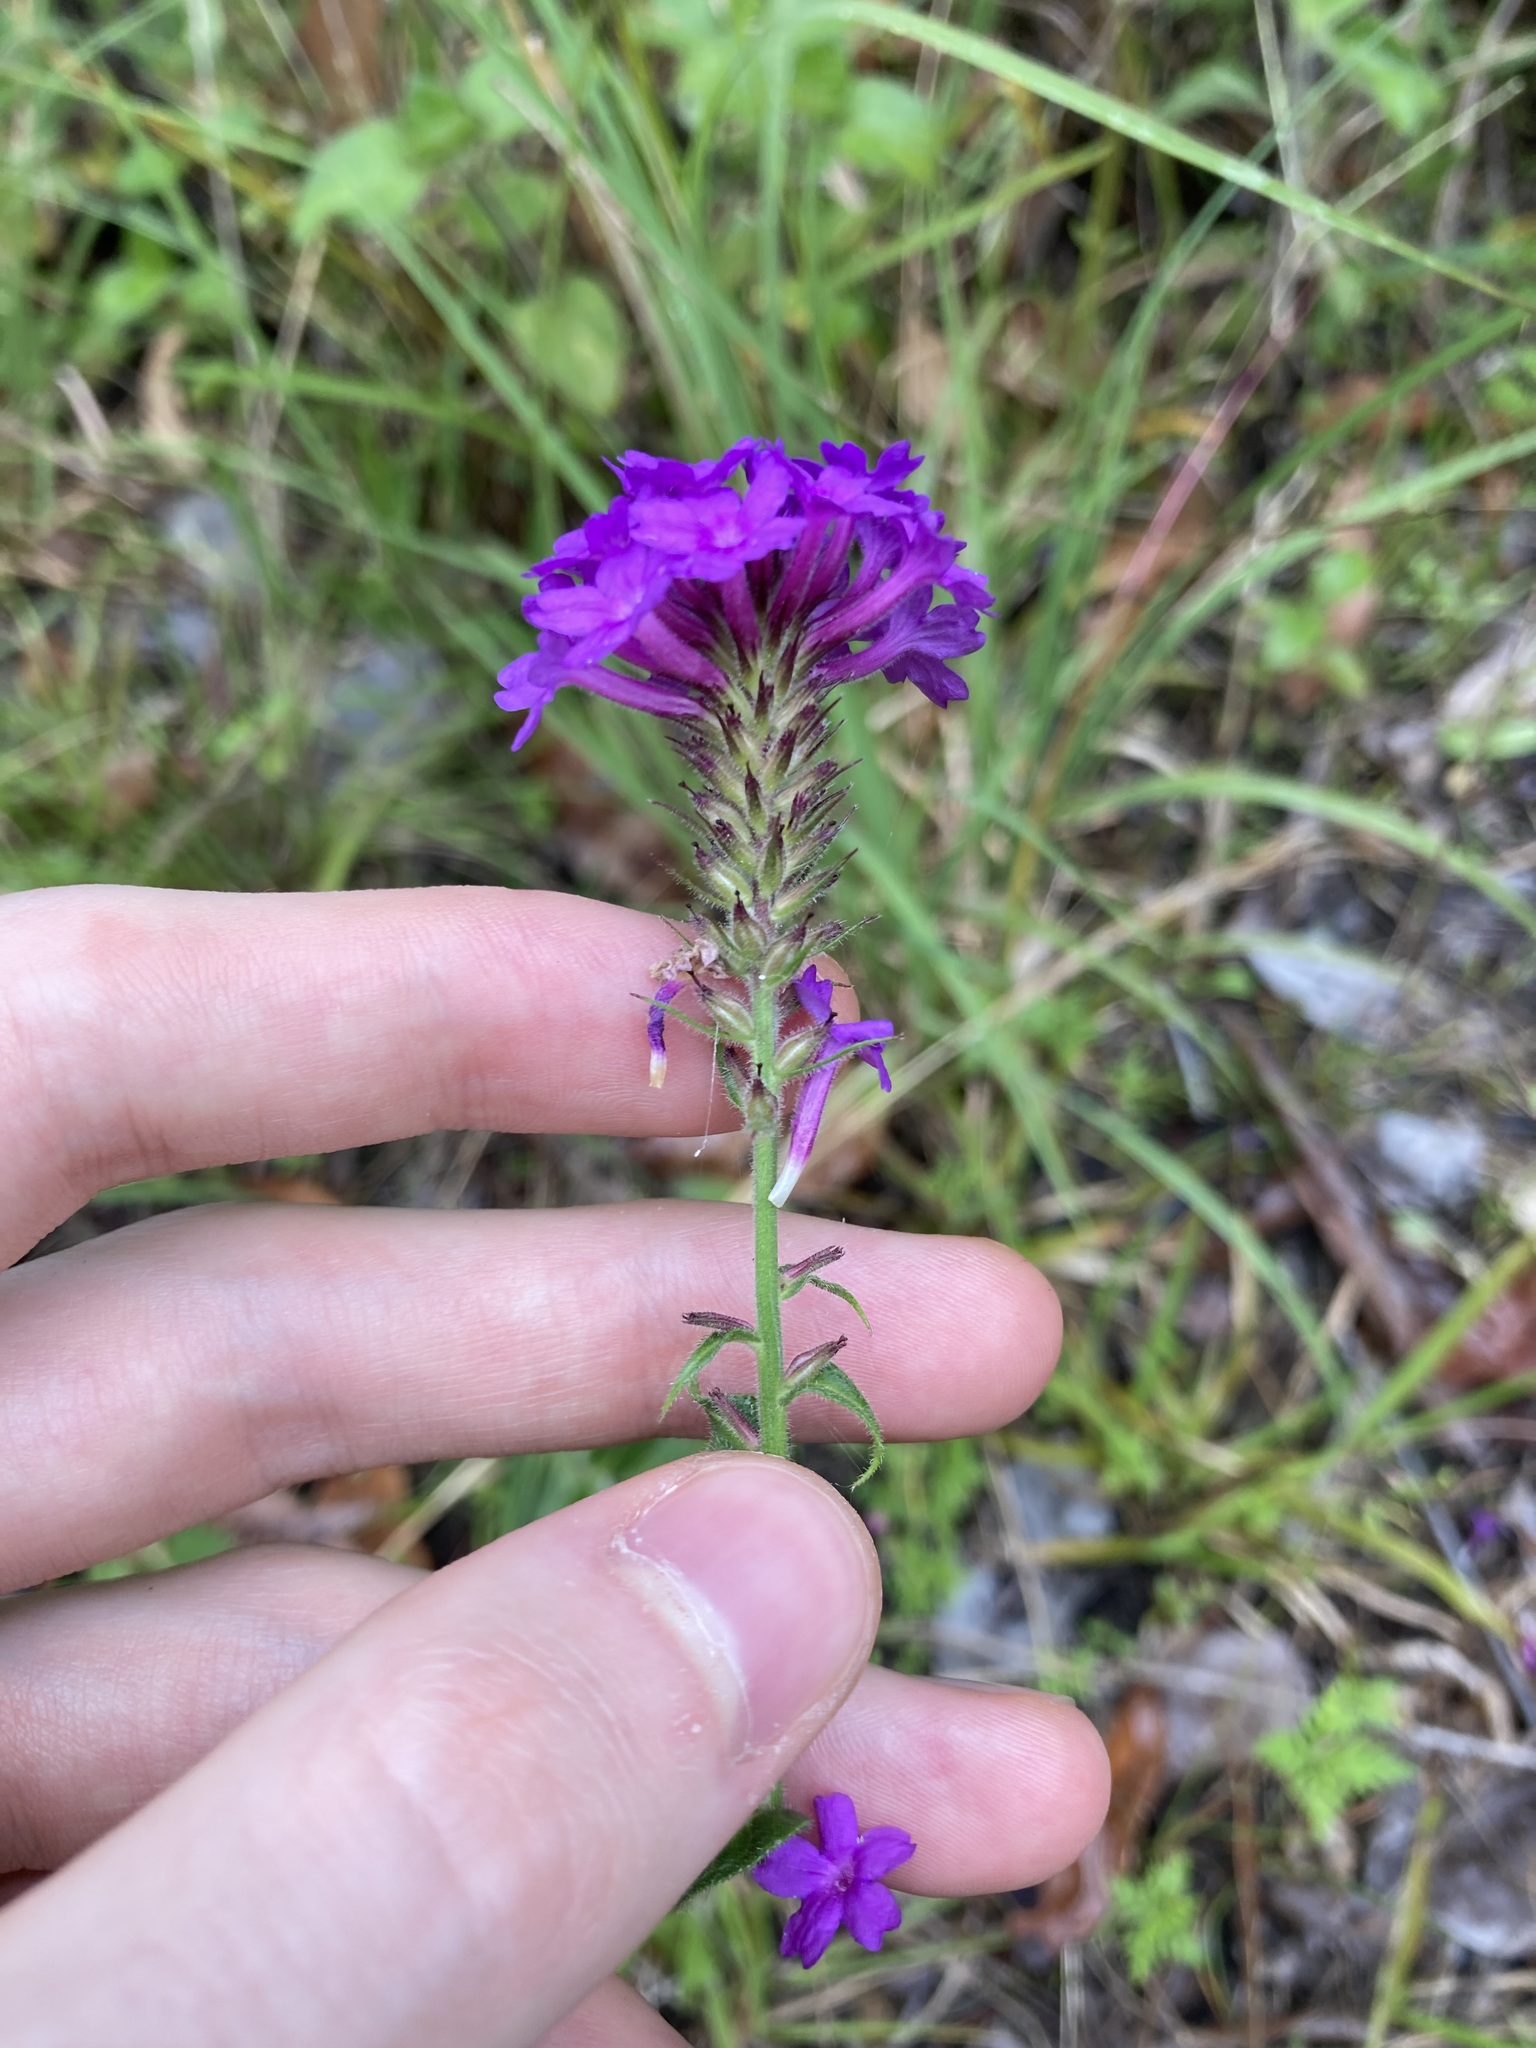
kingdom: Plantae
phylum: Tracheophyta
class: Magnoliopsida
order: Lamiales
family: Verbenaceae
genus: Verbena
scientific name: Verbena rigida
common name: Slender vervain
